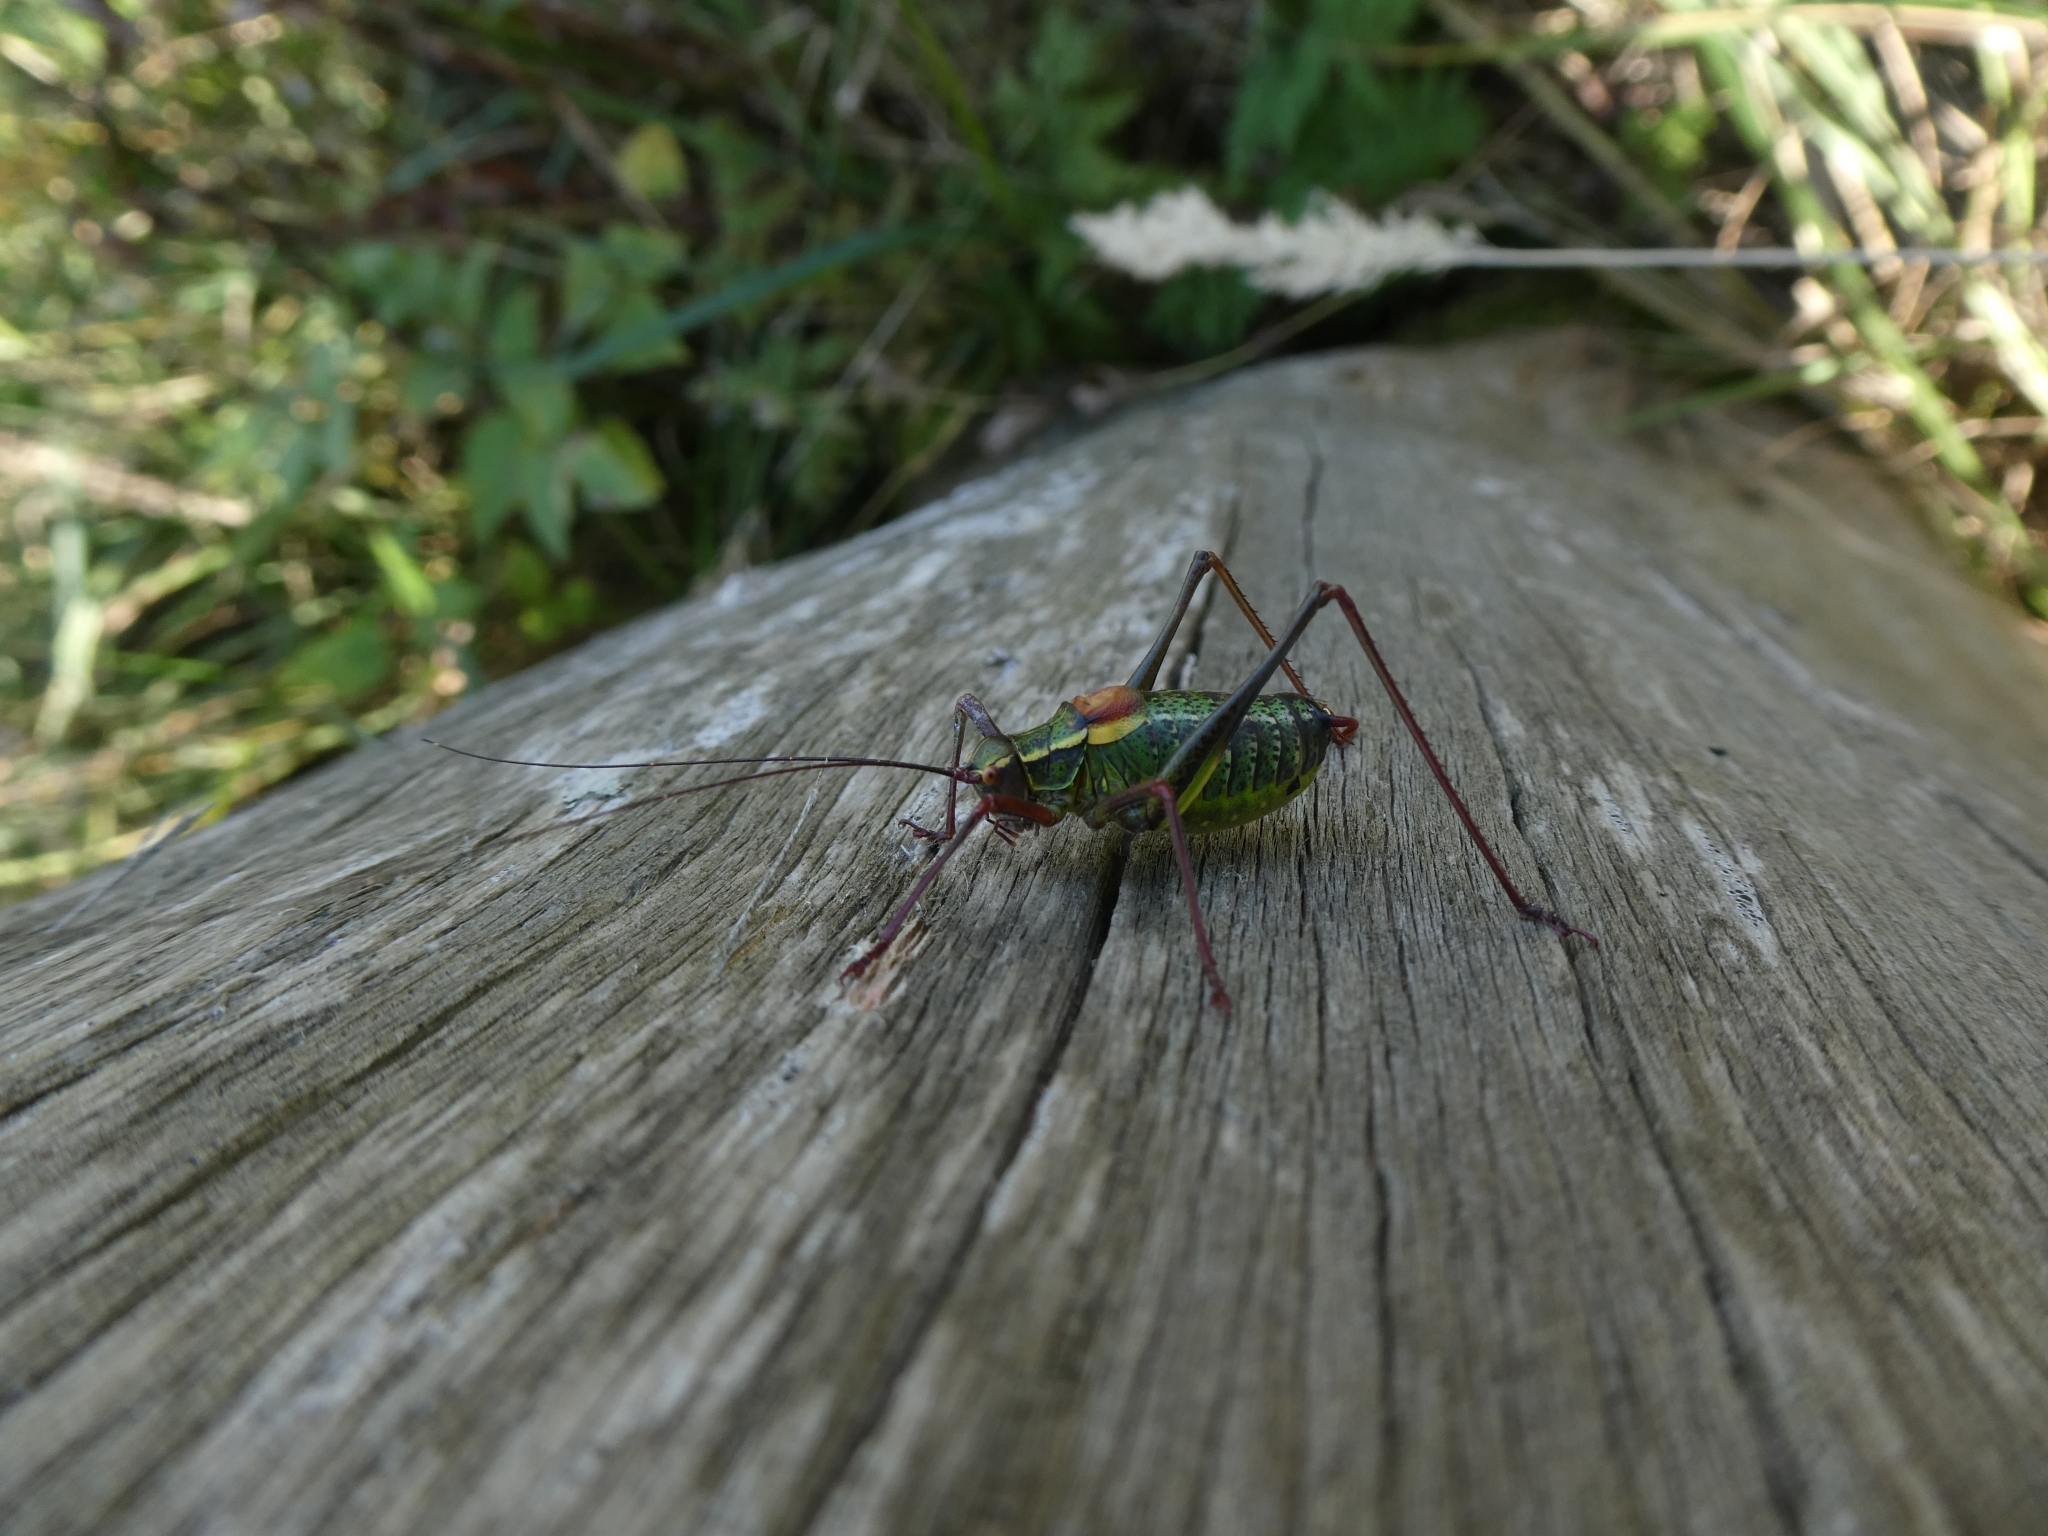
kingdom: Animalia
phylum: Arthropoda
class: Insecta
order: Orthoptera
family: Tettigoniidae
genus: Barbitistes
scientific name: Barbitistes serricauda
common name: Saw-tailed bush-cricket
